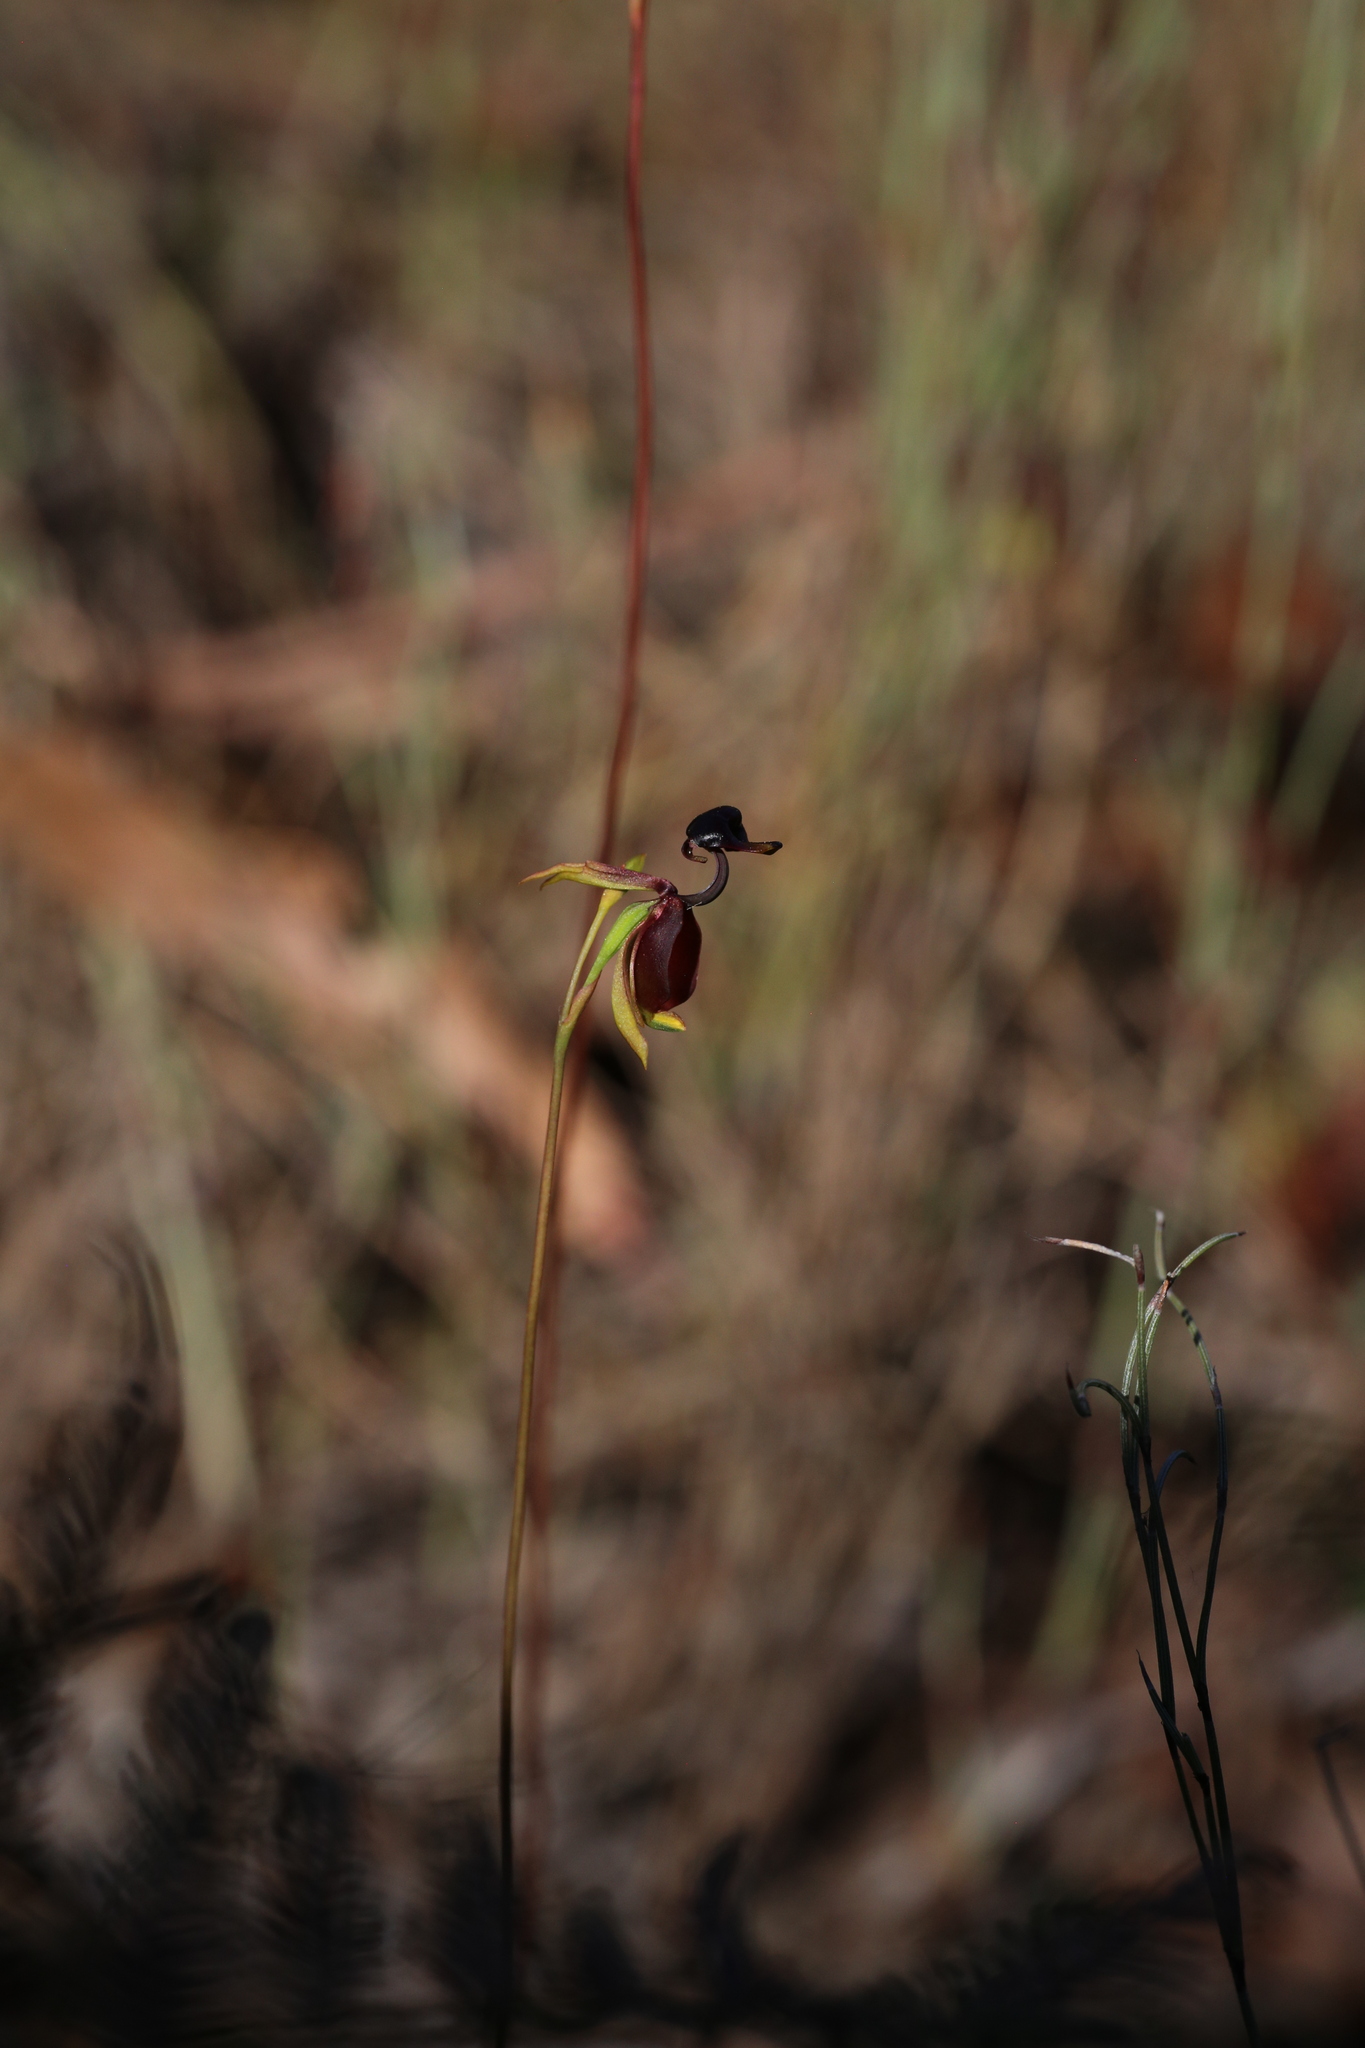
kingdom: Plantae
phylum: Tracheophyta
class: Liliopsida
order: Asparagales
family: Orchidaceae
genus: Caleana
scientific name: Caleana major
